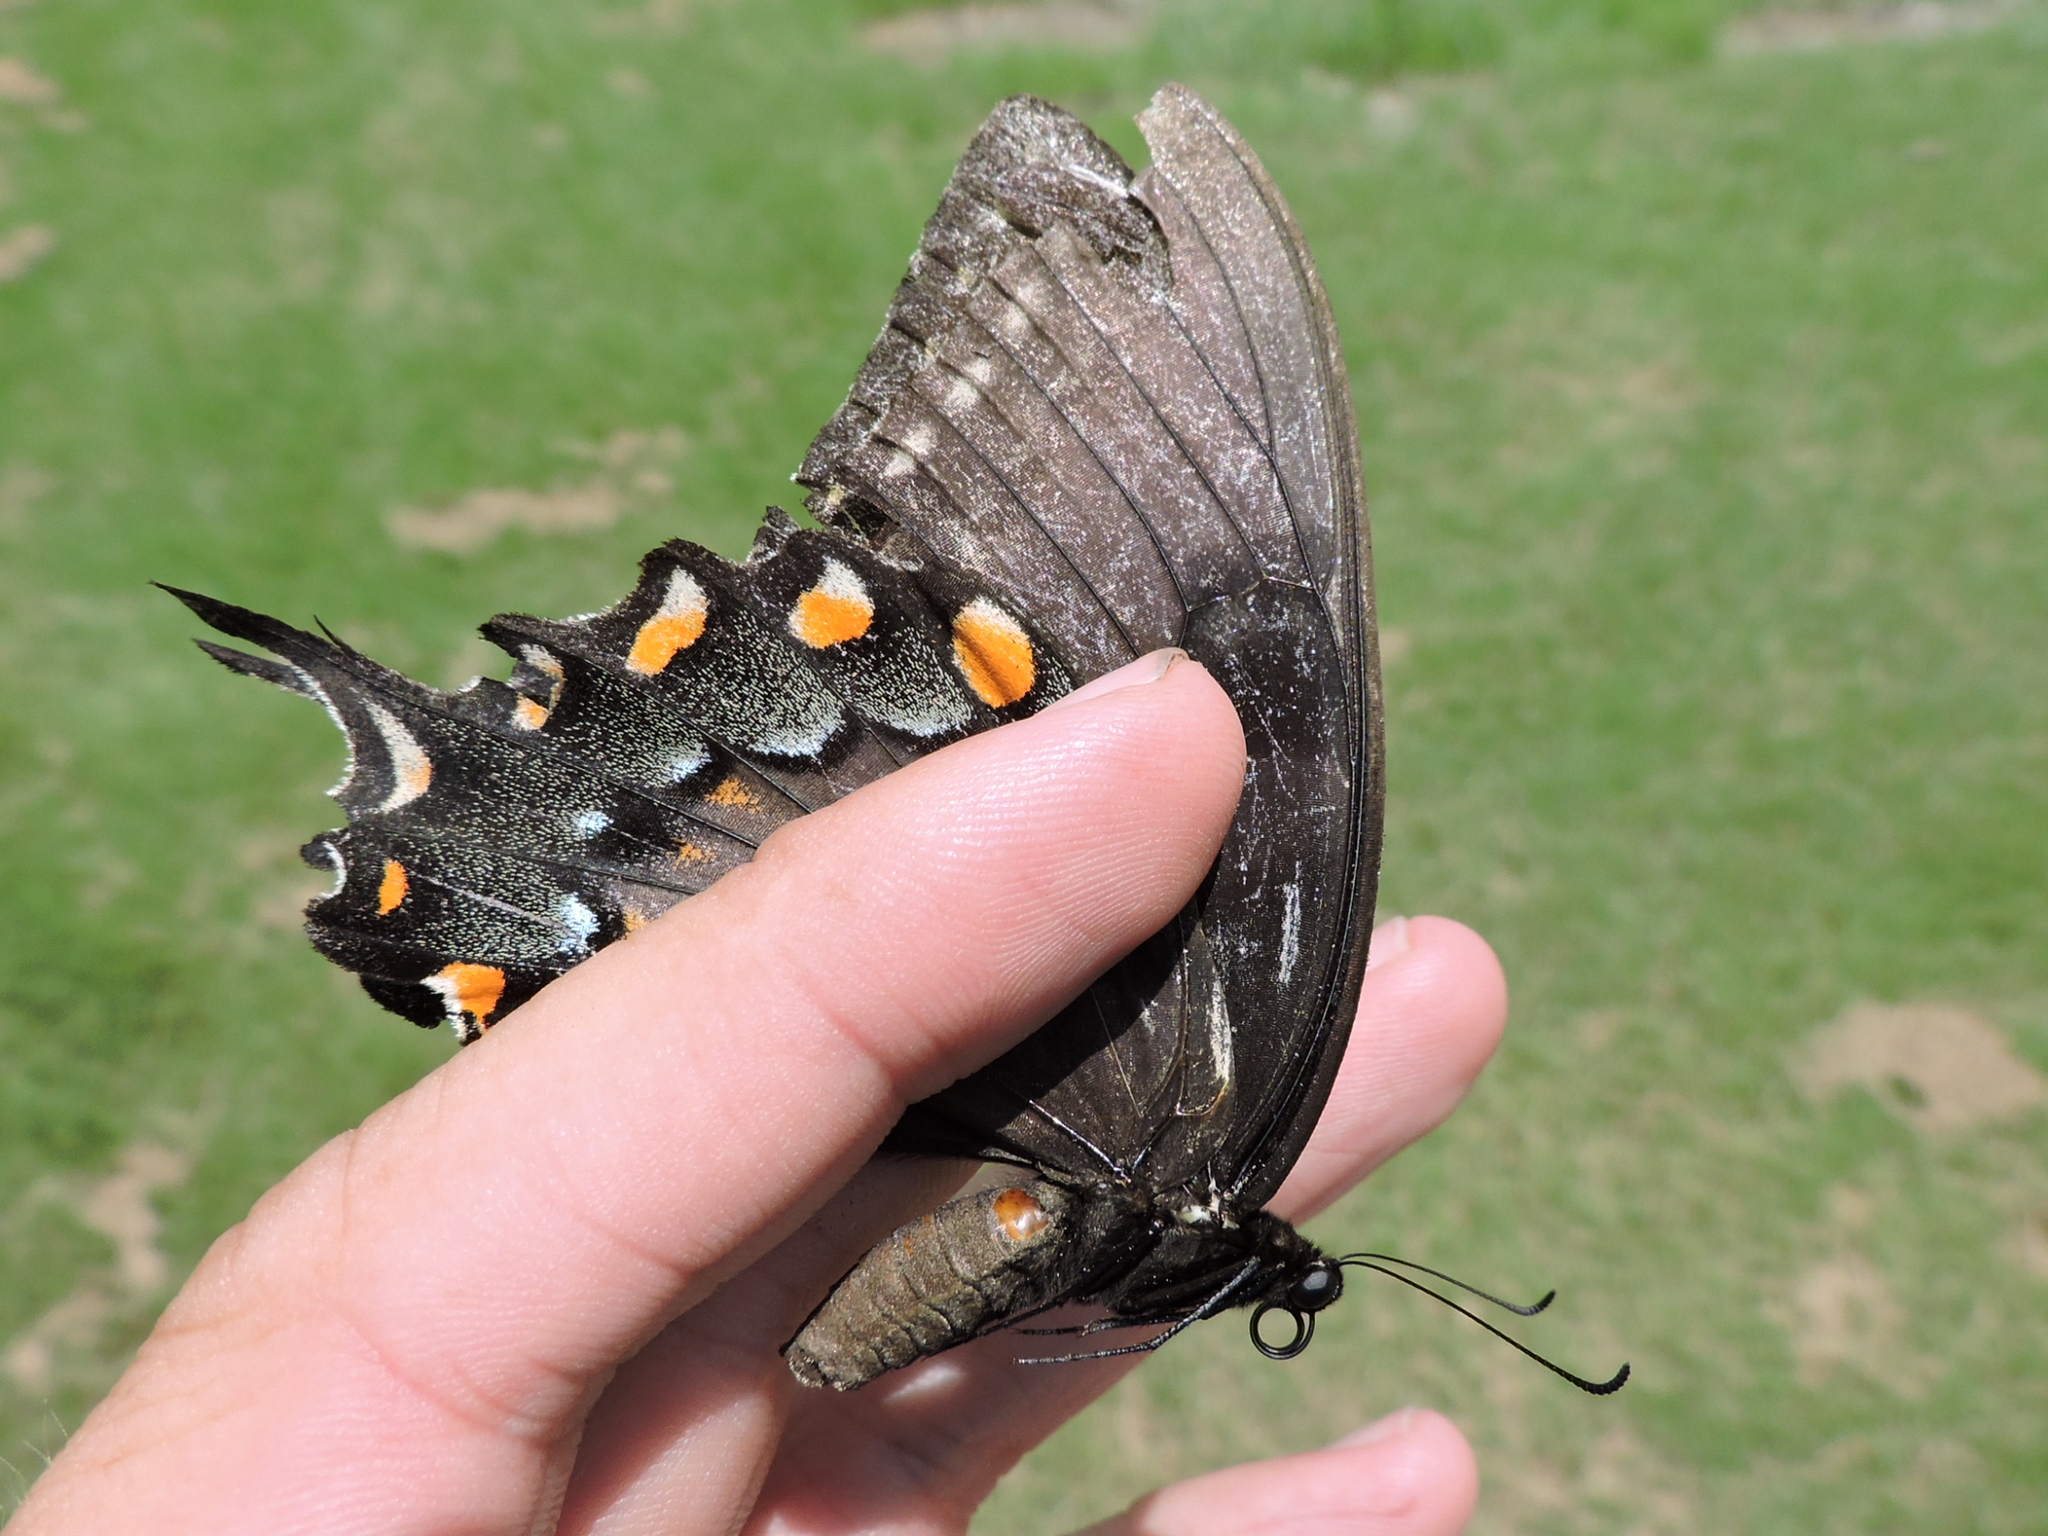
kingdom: Animalia
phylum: Arthropoda
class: Insecta
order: Lepidoptera
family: Papilionidae
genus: Papilio
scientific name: Papilio glaucus
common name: Tiger swallowtail
